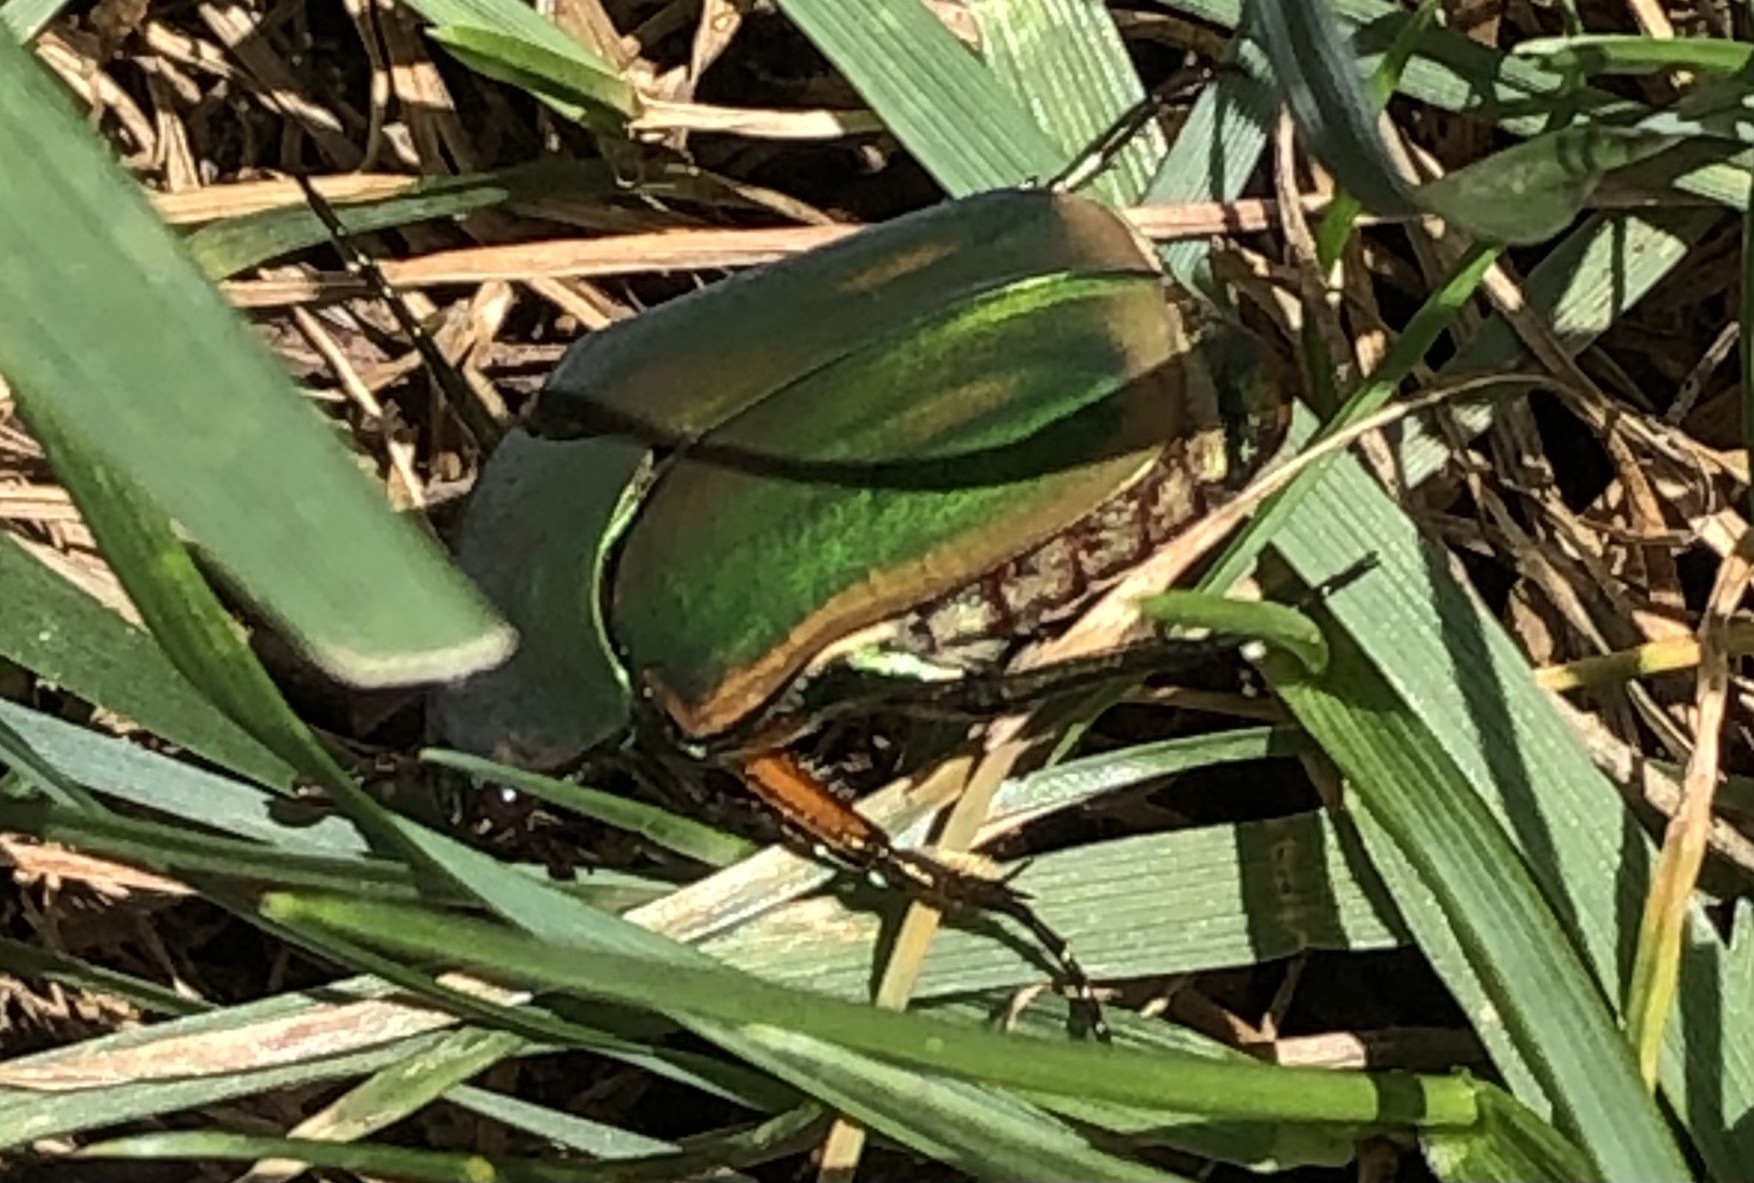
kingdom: Animalia
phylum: Arthropoda
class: Insecta
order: Coleoptera
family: Scarabaeidae
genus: Cotinis
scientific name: Cotinis nitida
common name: Common green june beetle
